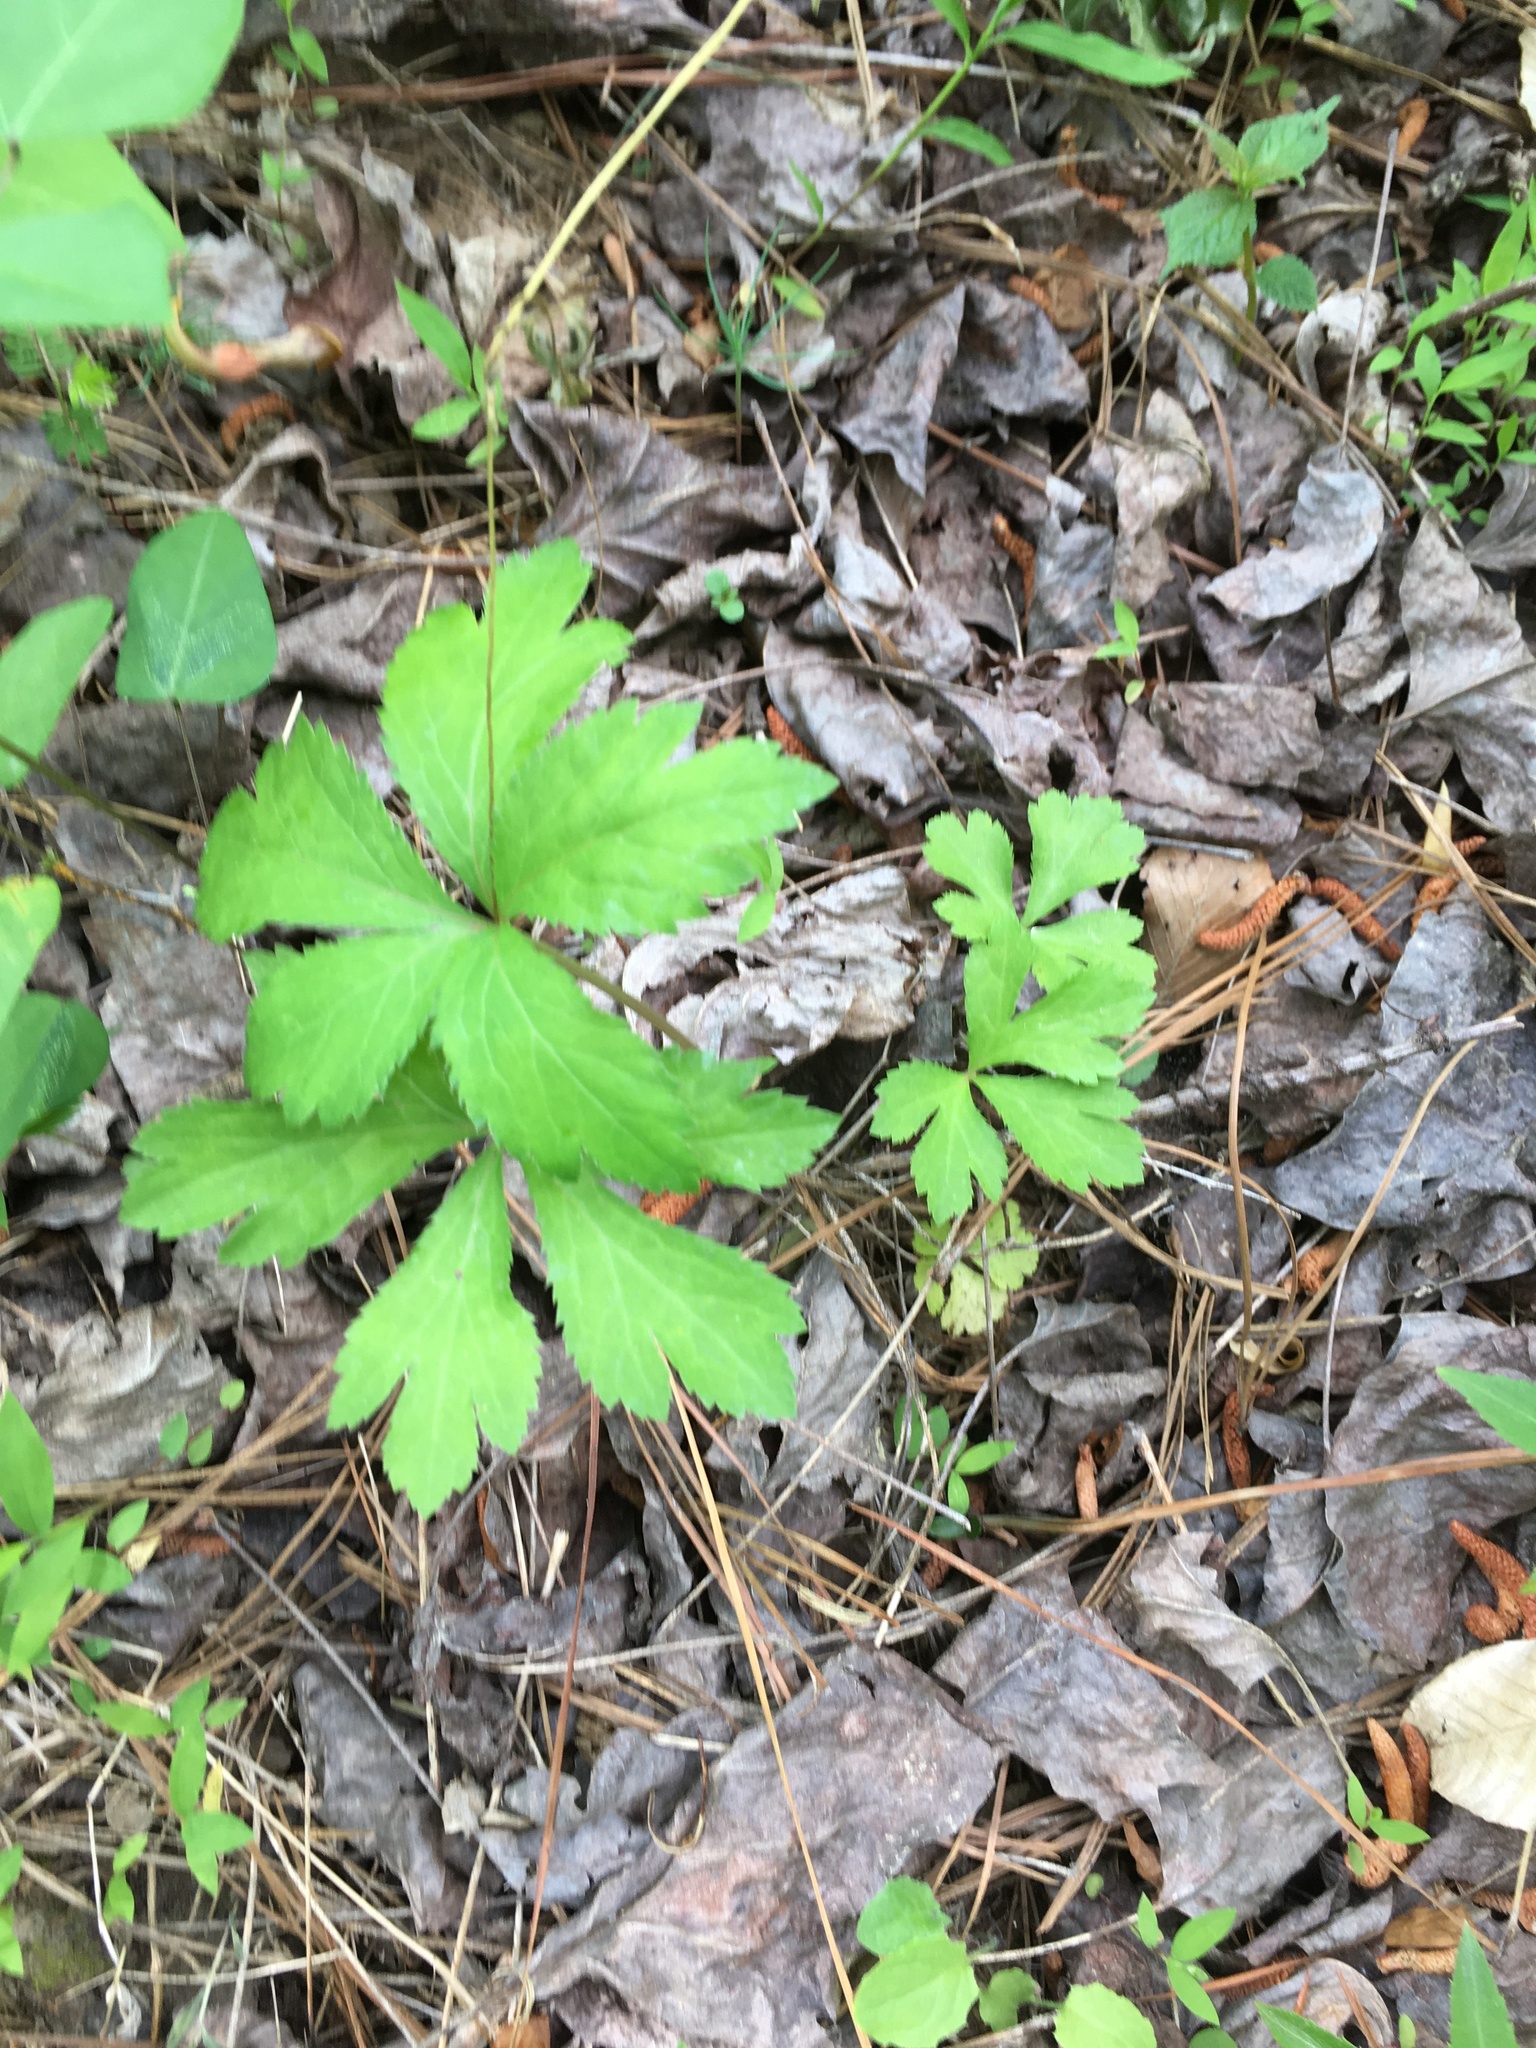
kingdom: Plantae
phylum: Tracheophyta
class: Magnoliopsida
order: Apiales
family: Apiaceae
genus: Sanicula
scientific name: Sanicula canadensis
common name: Canada sanicle
